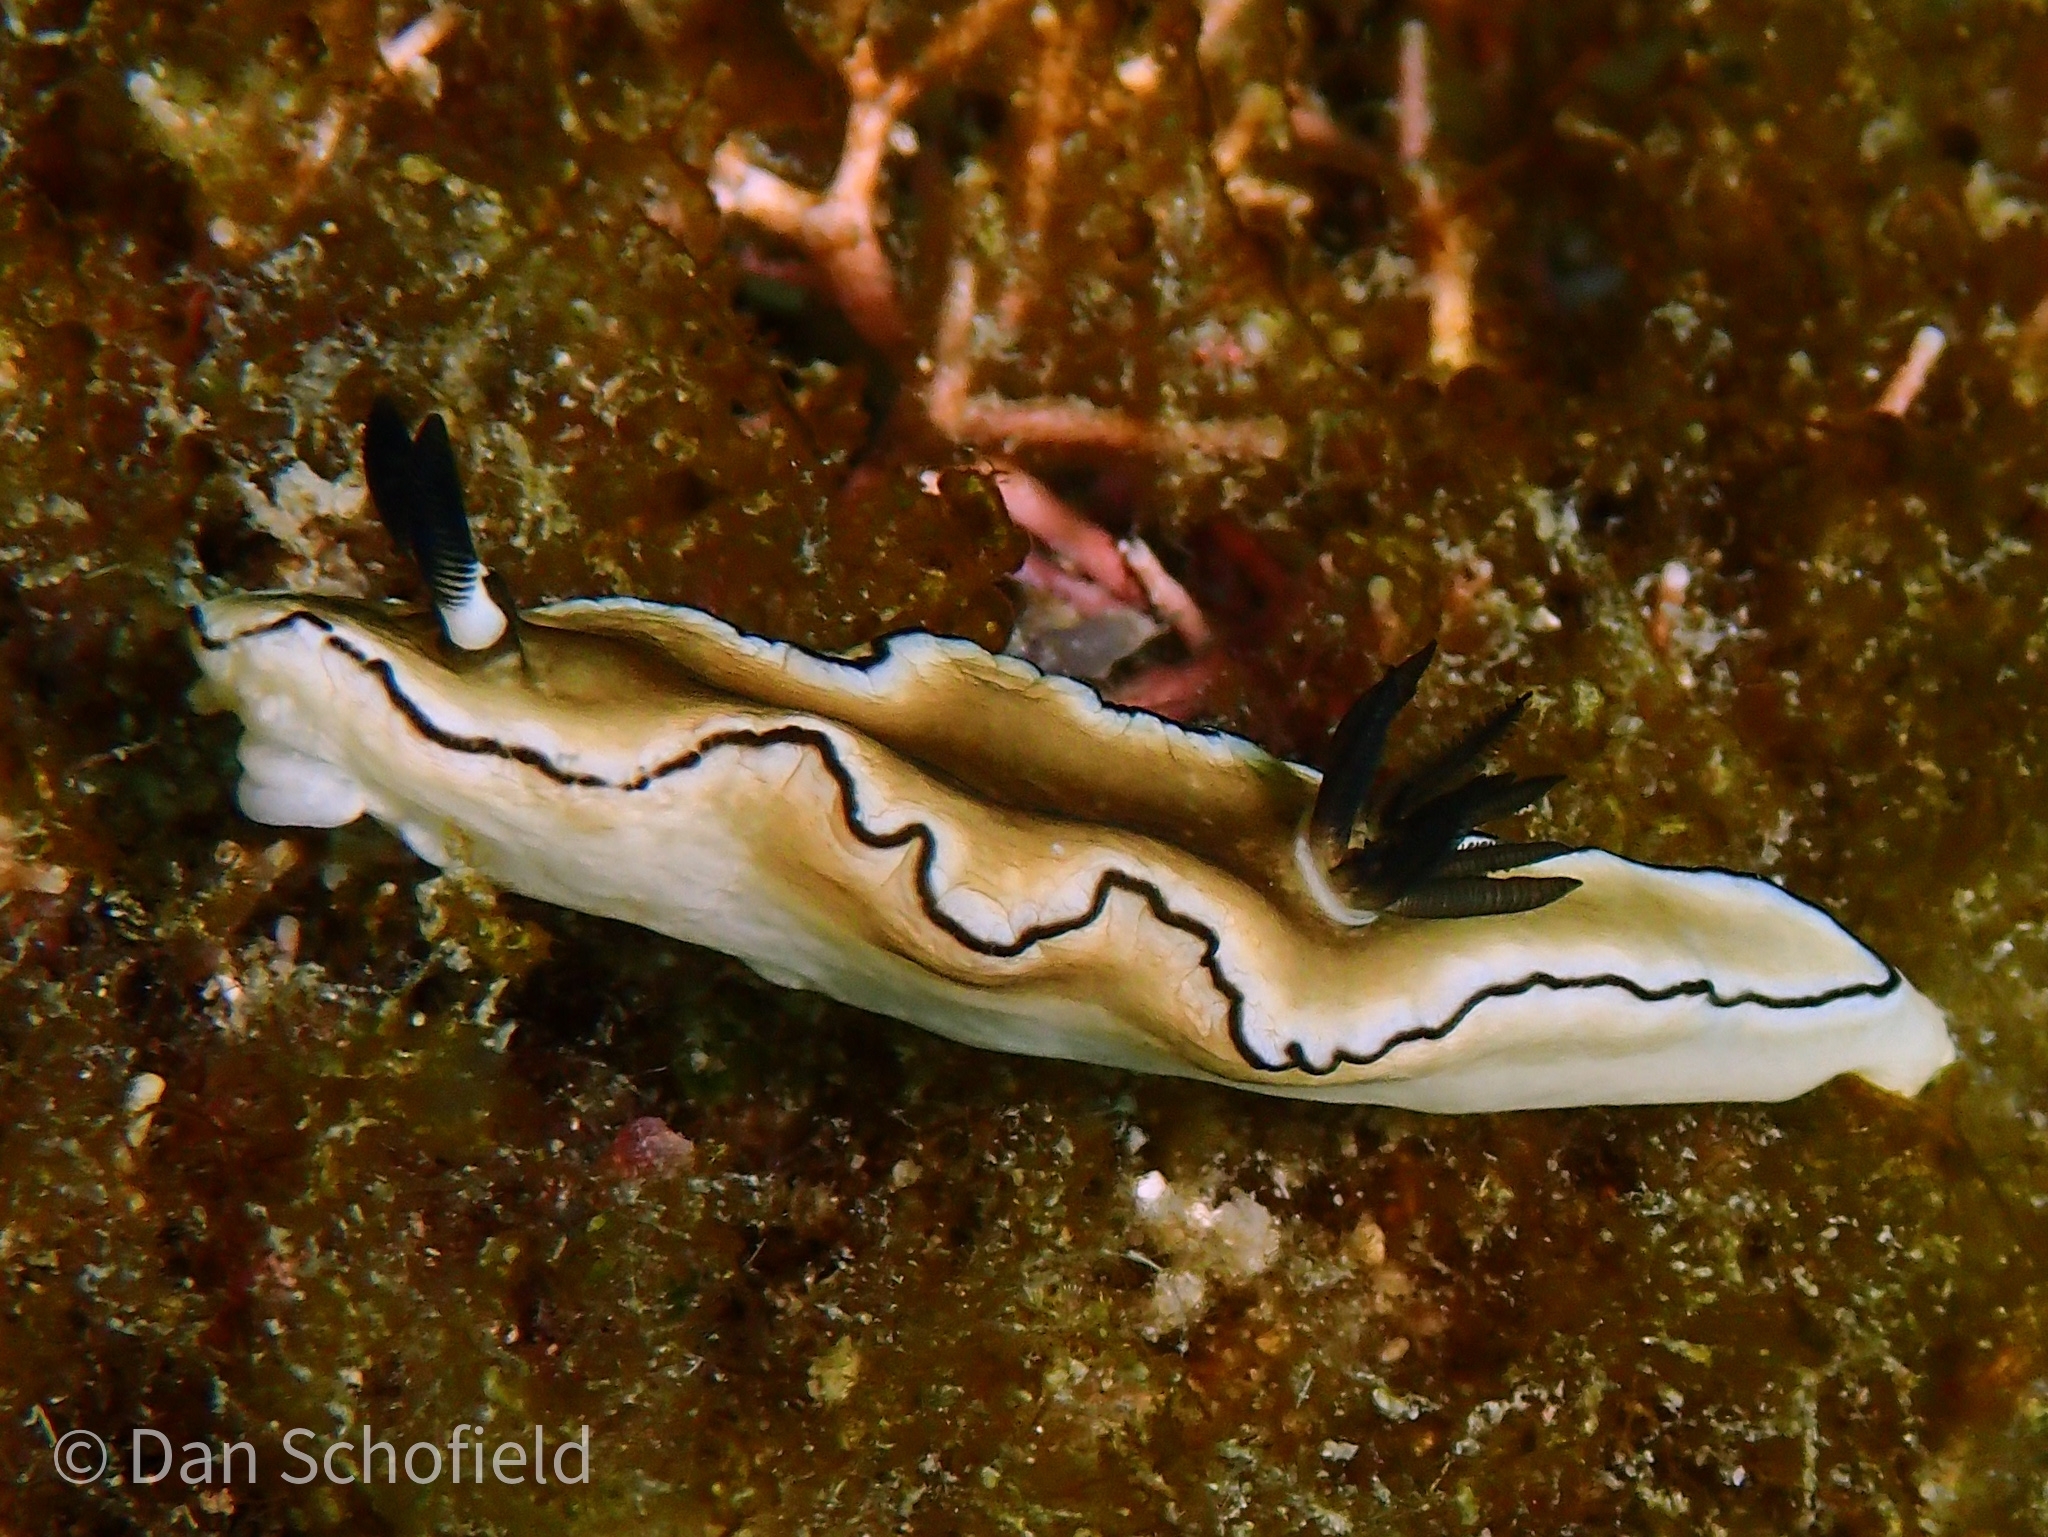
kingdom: Animalia
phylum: Mollusca
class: Gastropoda
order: Nudibranchia
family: Chromodorididae
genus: Doriprismatica
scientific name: Doriprismatica atromarginata
